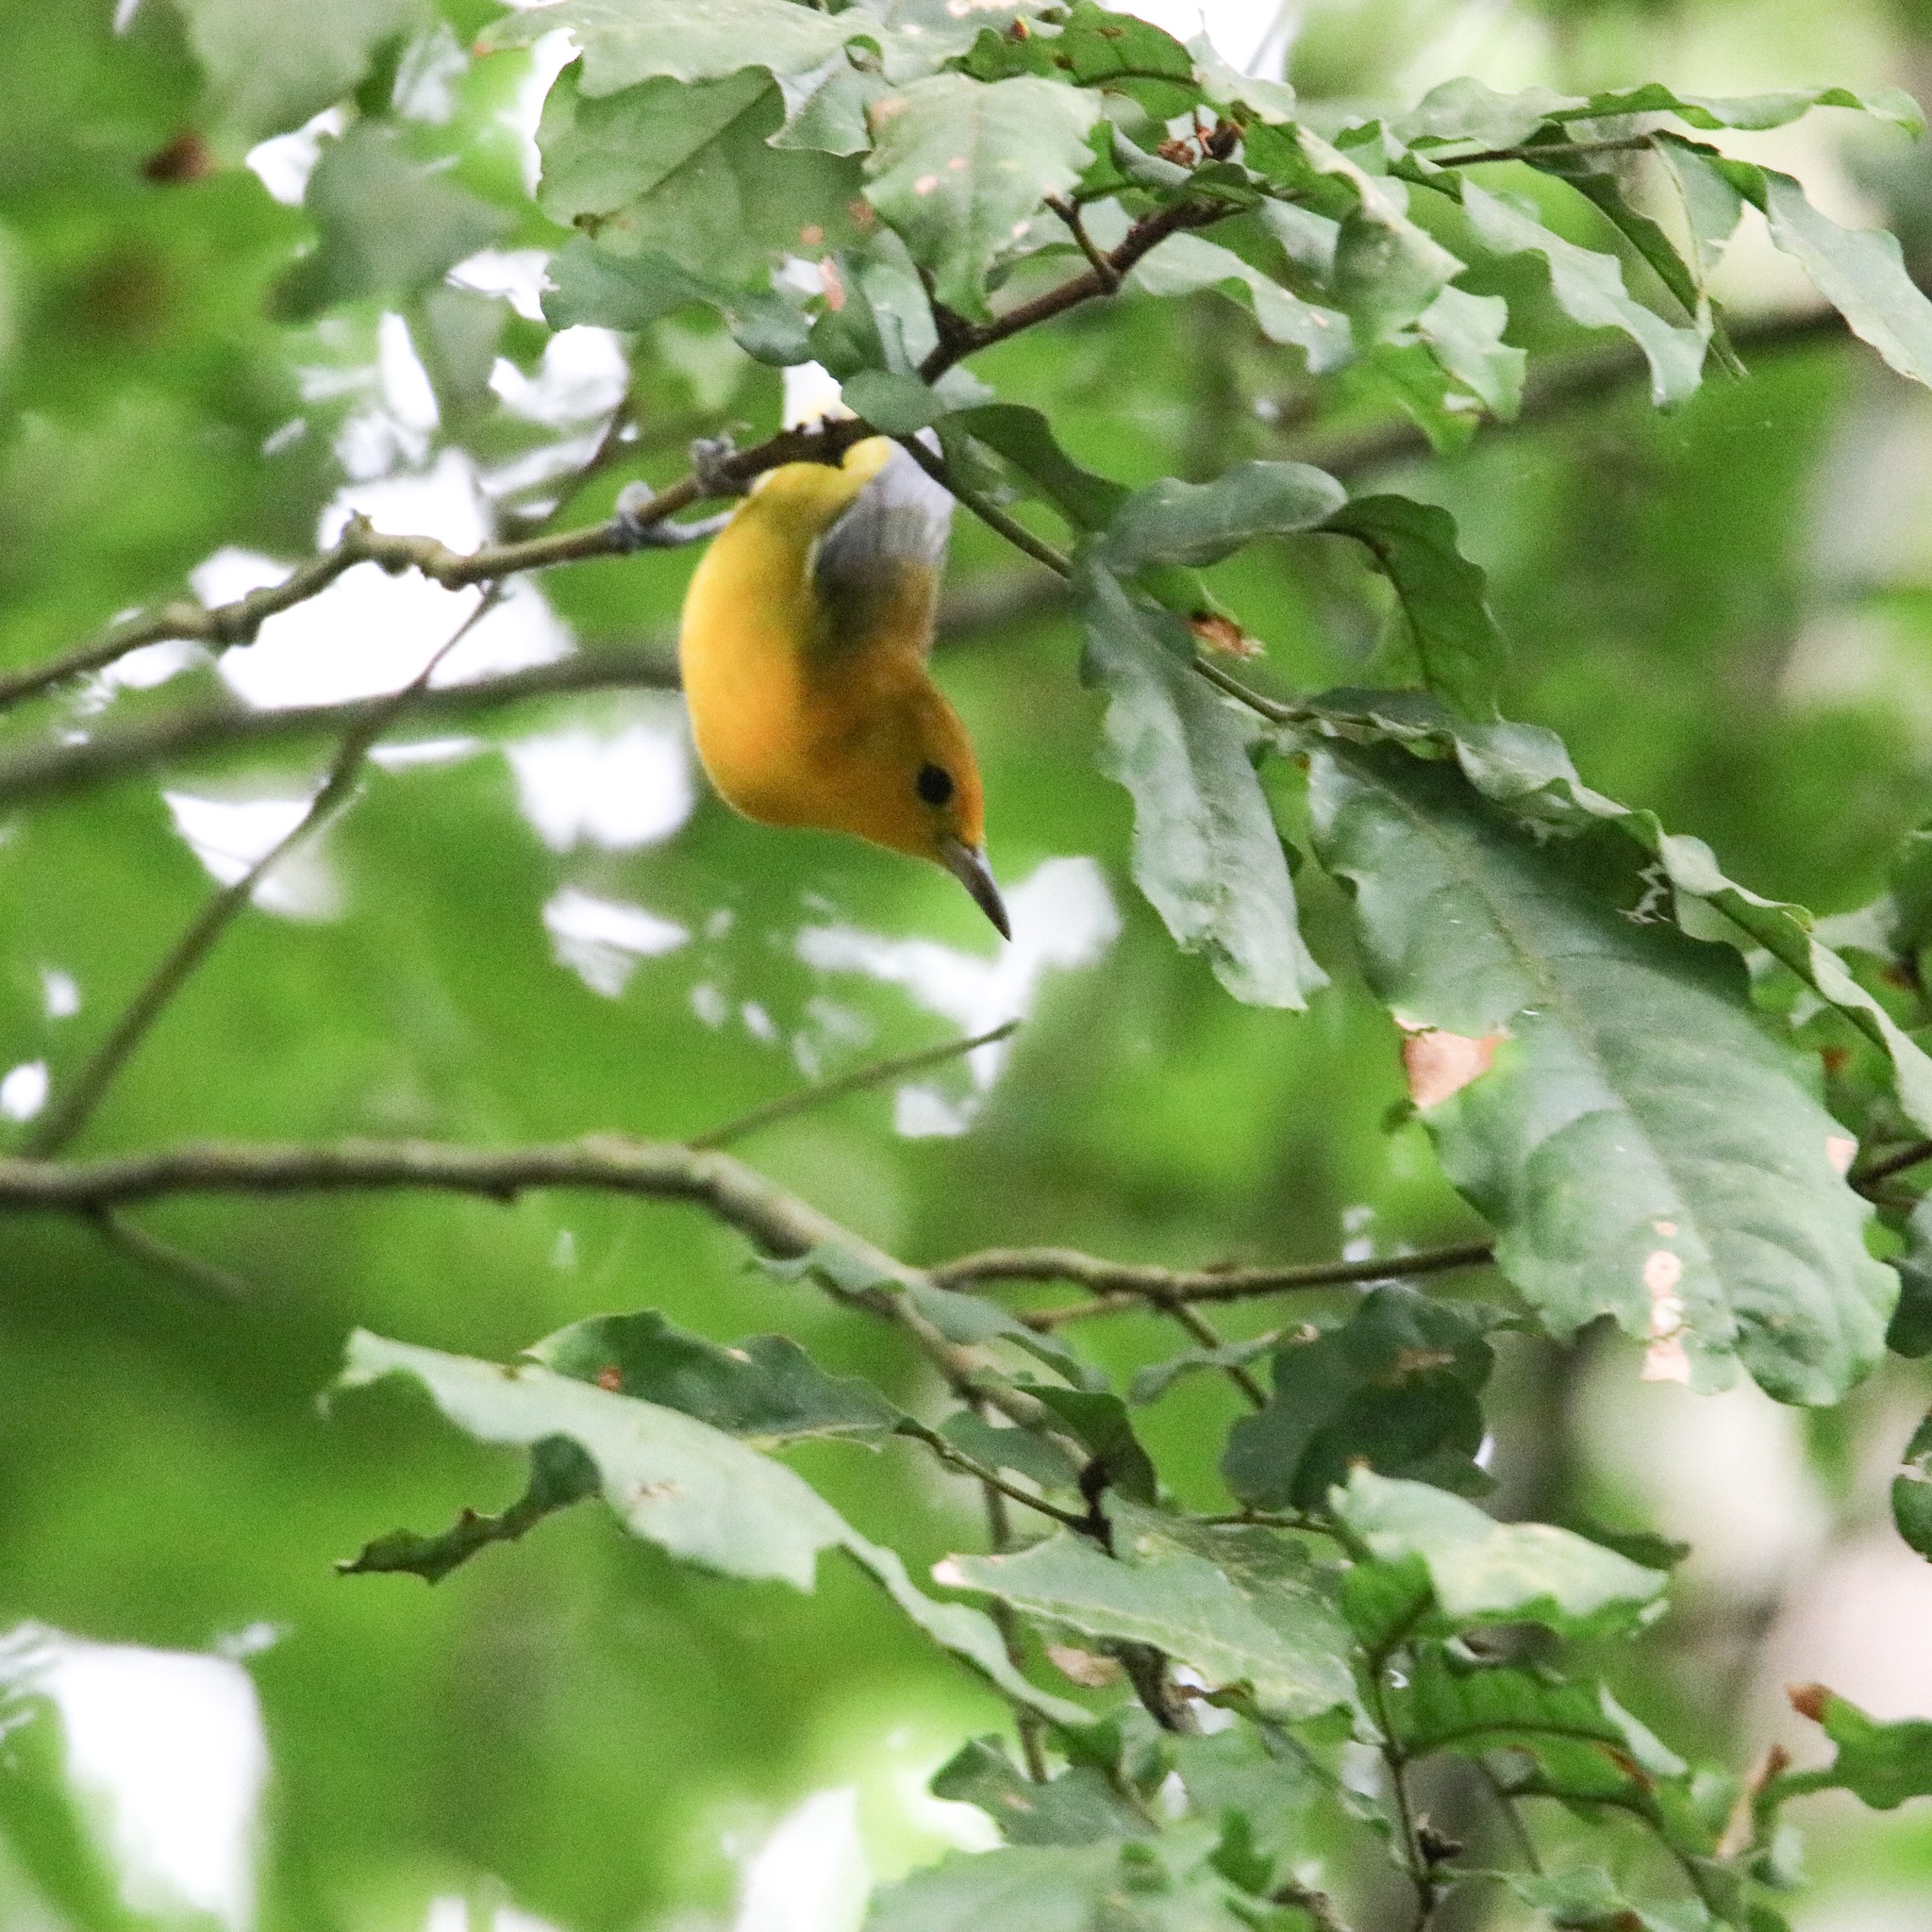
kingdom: Animalia
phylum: Chordata
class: Aves
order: Passeriformes
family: Parulidae
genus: Protonotaria
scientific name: Protonotaria citrea
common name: Prothonotary warbler
